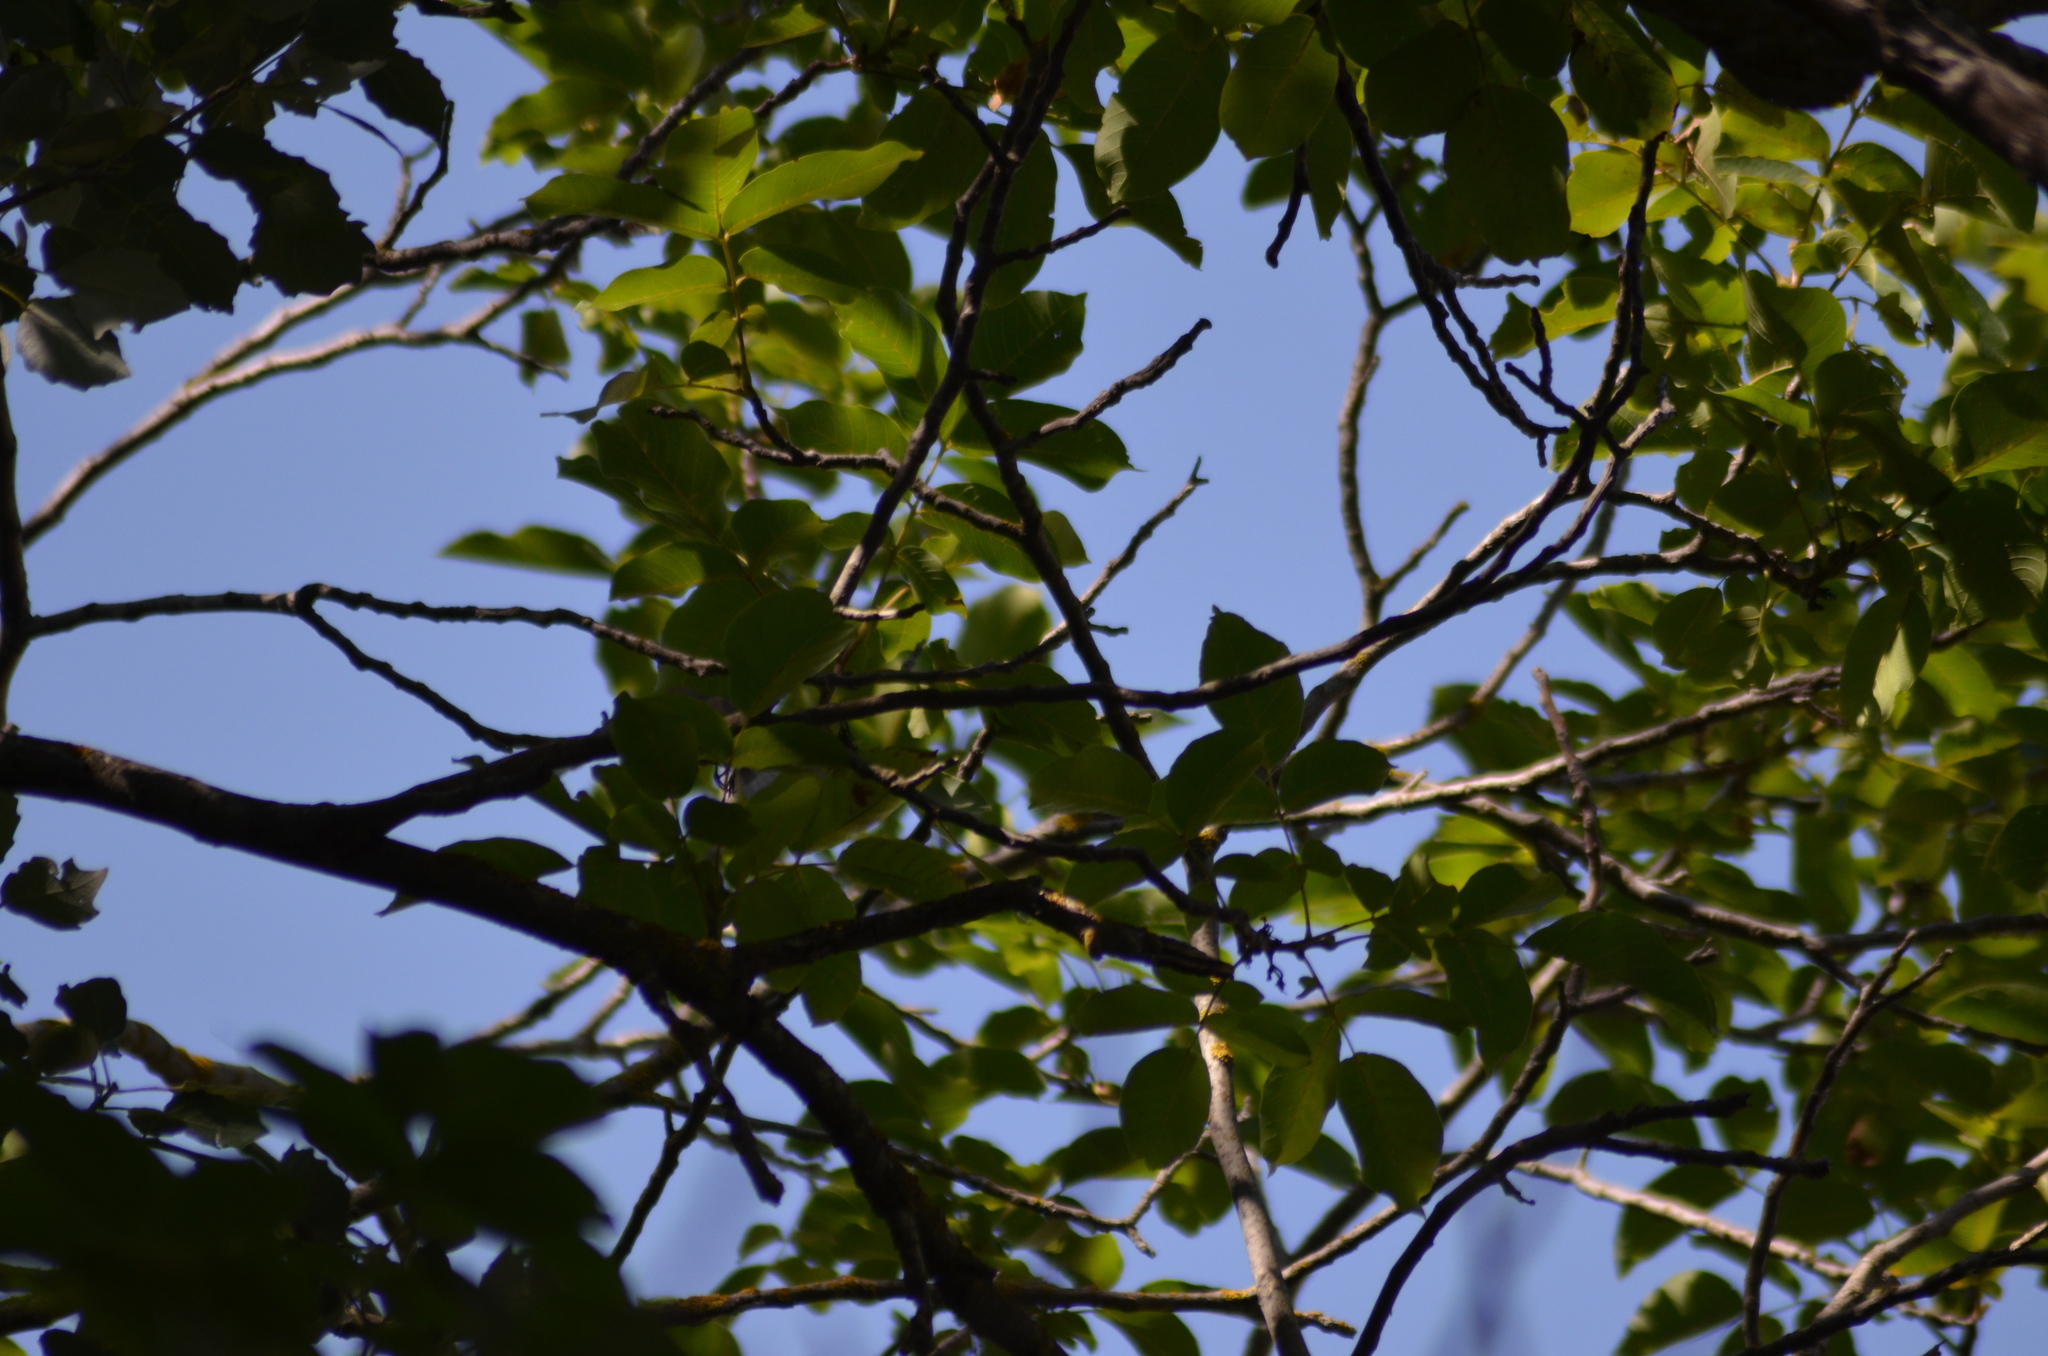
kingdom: Animalia
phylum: Chordata
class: Aves
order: Passeriformes
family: Muscicapidae
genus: Ficedula
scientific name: Ficedula hypoleuca
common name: European pied flycatcher
